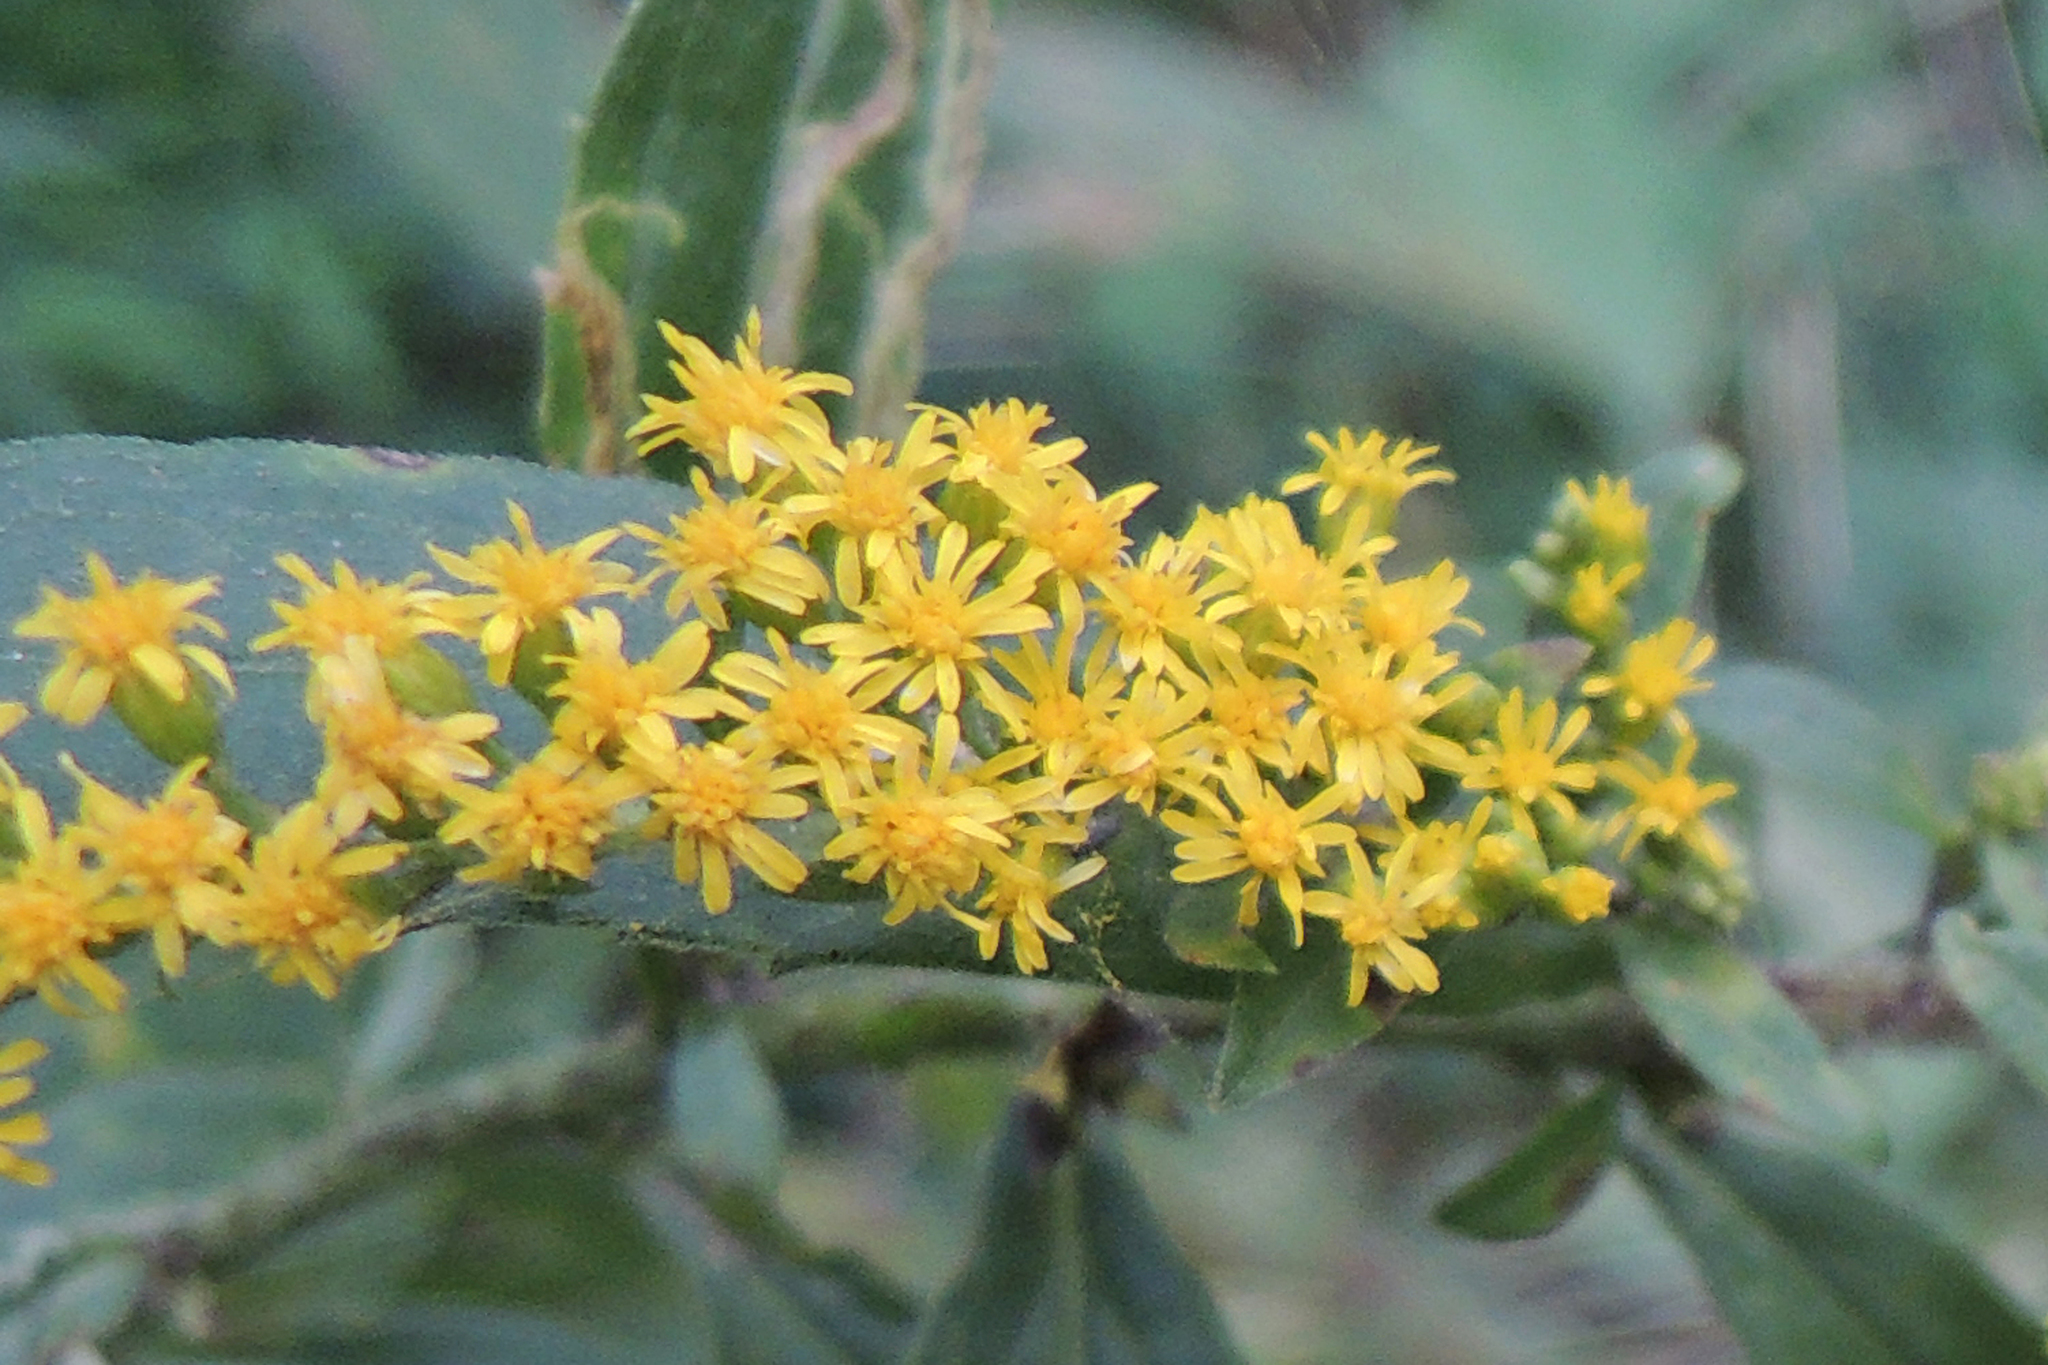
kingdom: Plantae
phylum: Tracheophyta
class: Magnoliopsida
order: Asterales
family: Asteraceae
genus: Solidago
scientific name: Solidago canadensis
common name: Canada goldenrod
